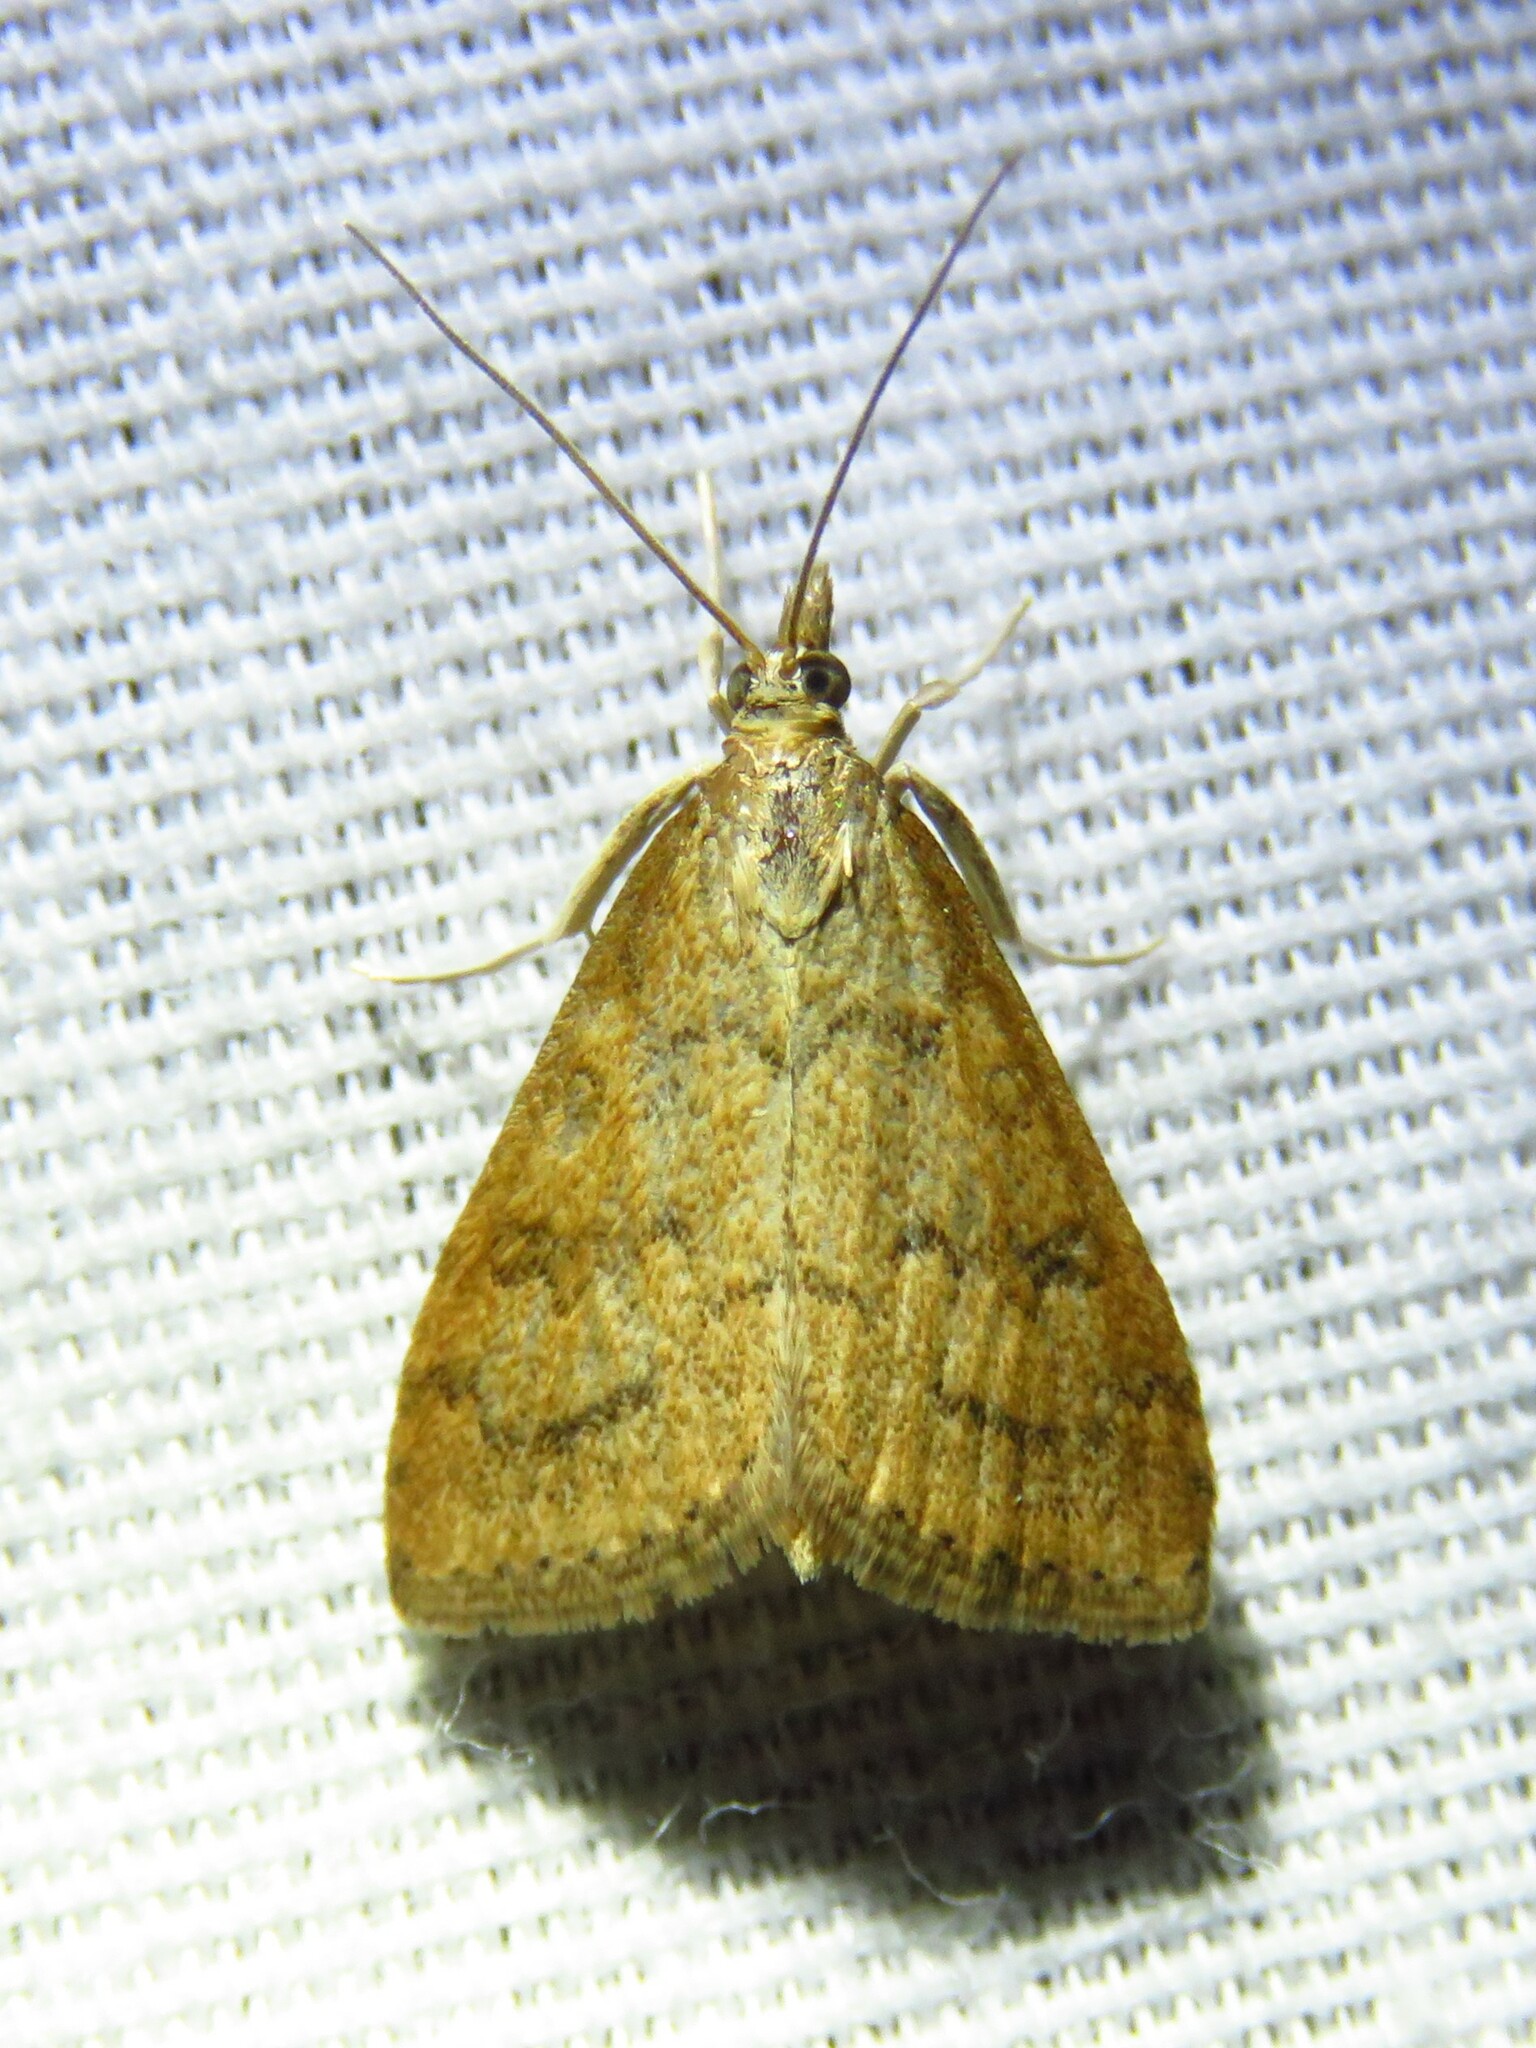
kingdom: Animalia
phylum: Arthropoda
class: Insecta
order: Lepidoptera
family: Crambidae
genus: Udea
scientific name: Udea rubigalis
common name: Celery leaftier moth
